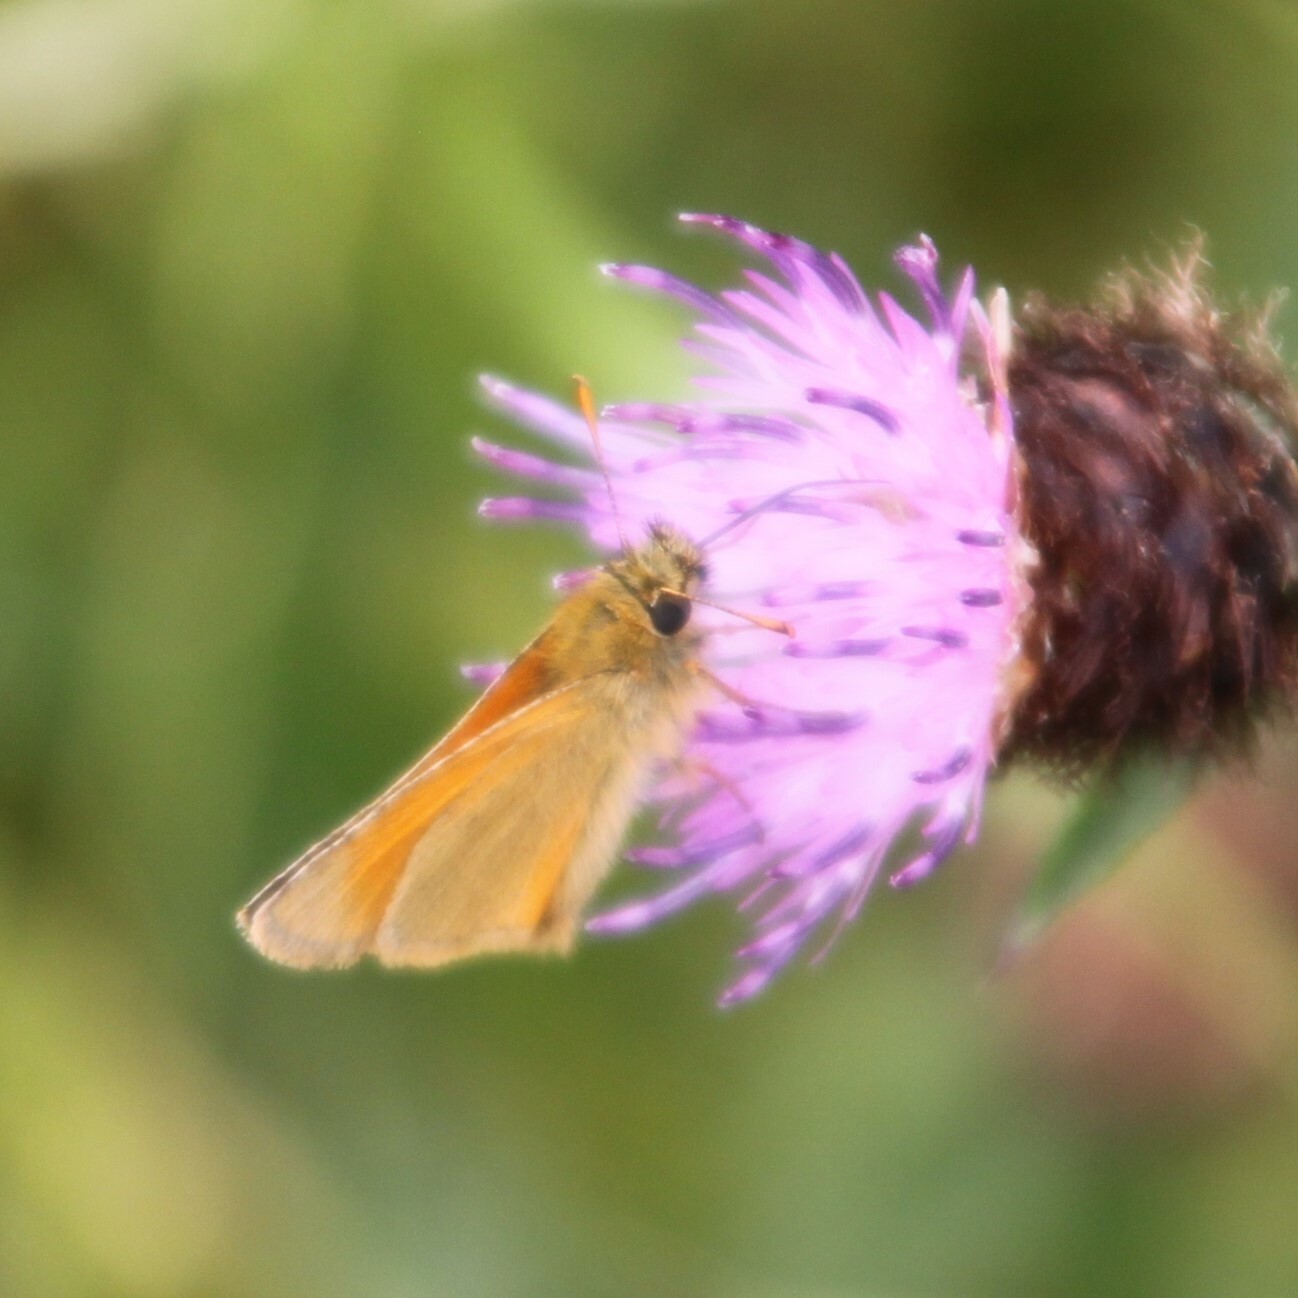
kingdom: Animalia
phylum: Arthropoda
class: Insecta
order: Lepidoptera
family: Hesperiidae
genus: Thymelicus
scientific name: Thymelicus sylvestris
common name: Small skipper
